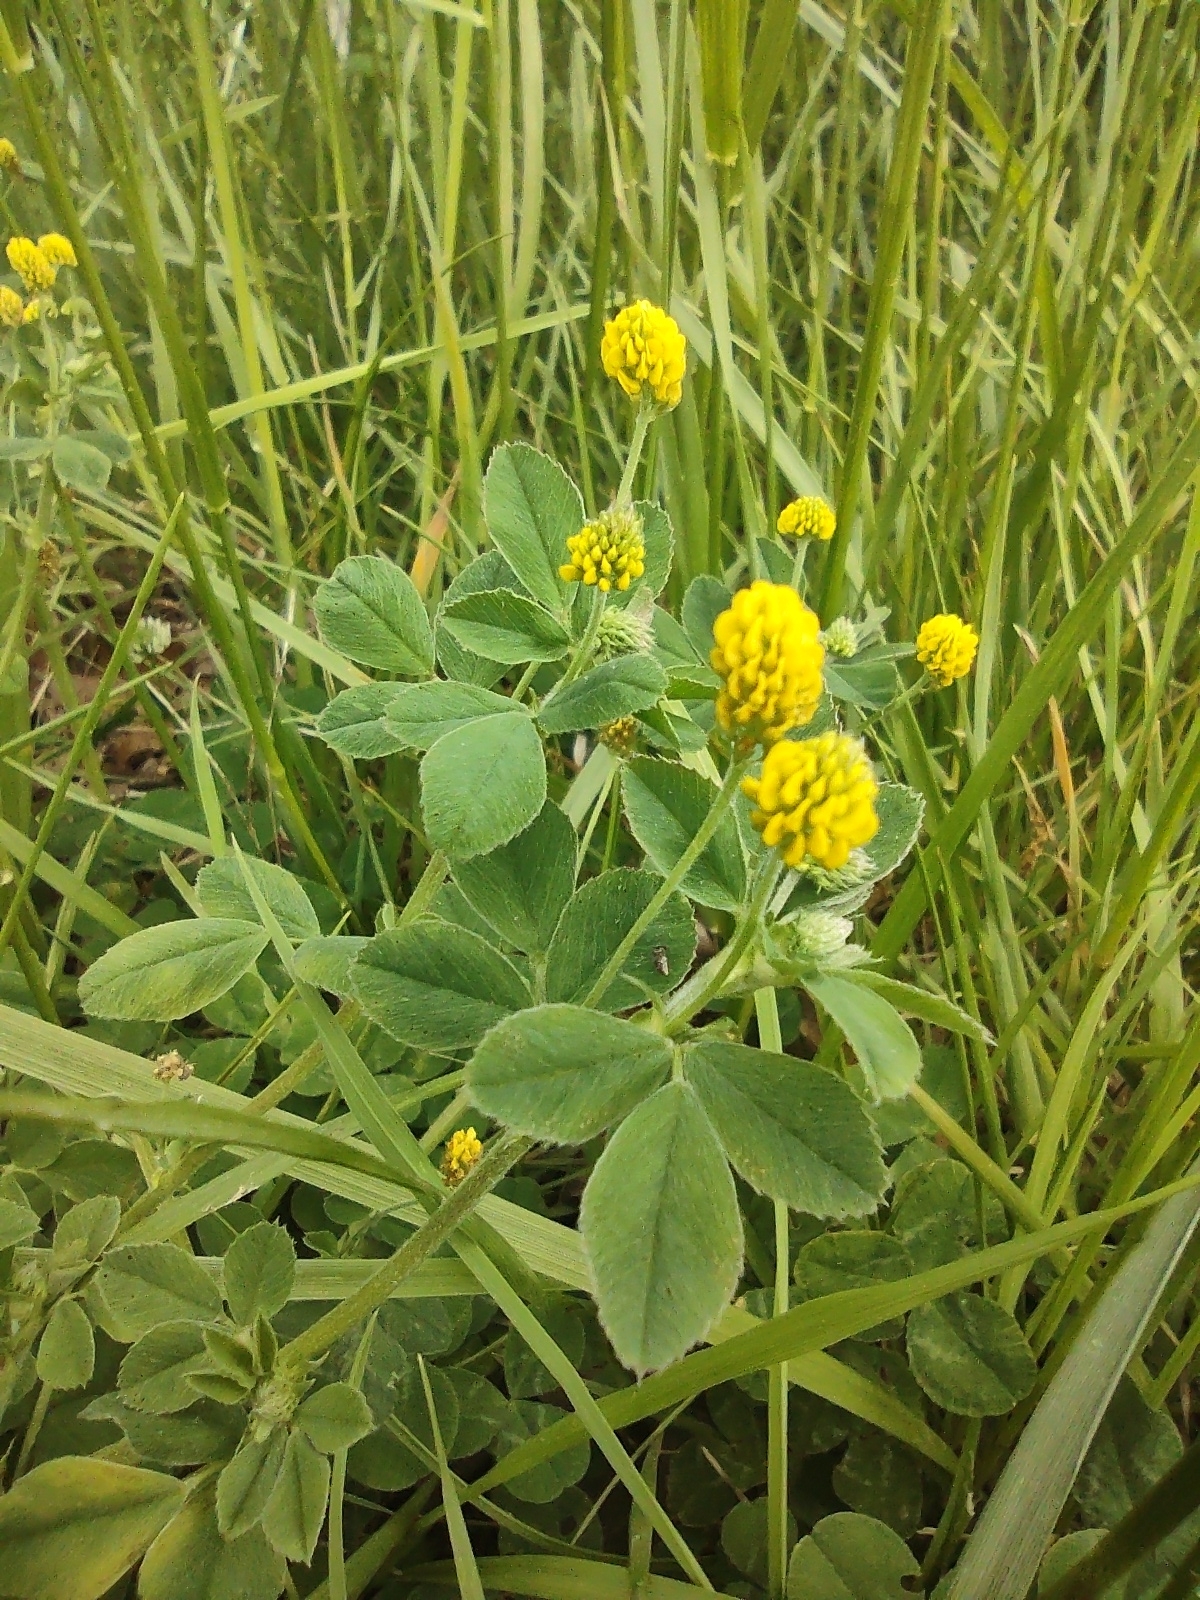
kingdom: Plantae
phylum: Tracheophyta
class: Magnoliopsida
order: Fabales
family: Fabaceae
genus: Medicago
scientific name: Medicago lupulina
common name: Black medick
